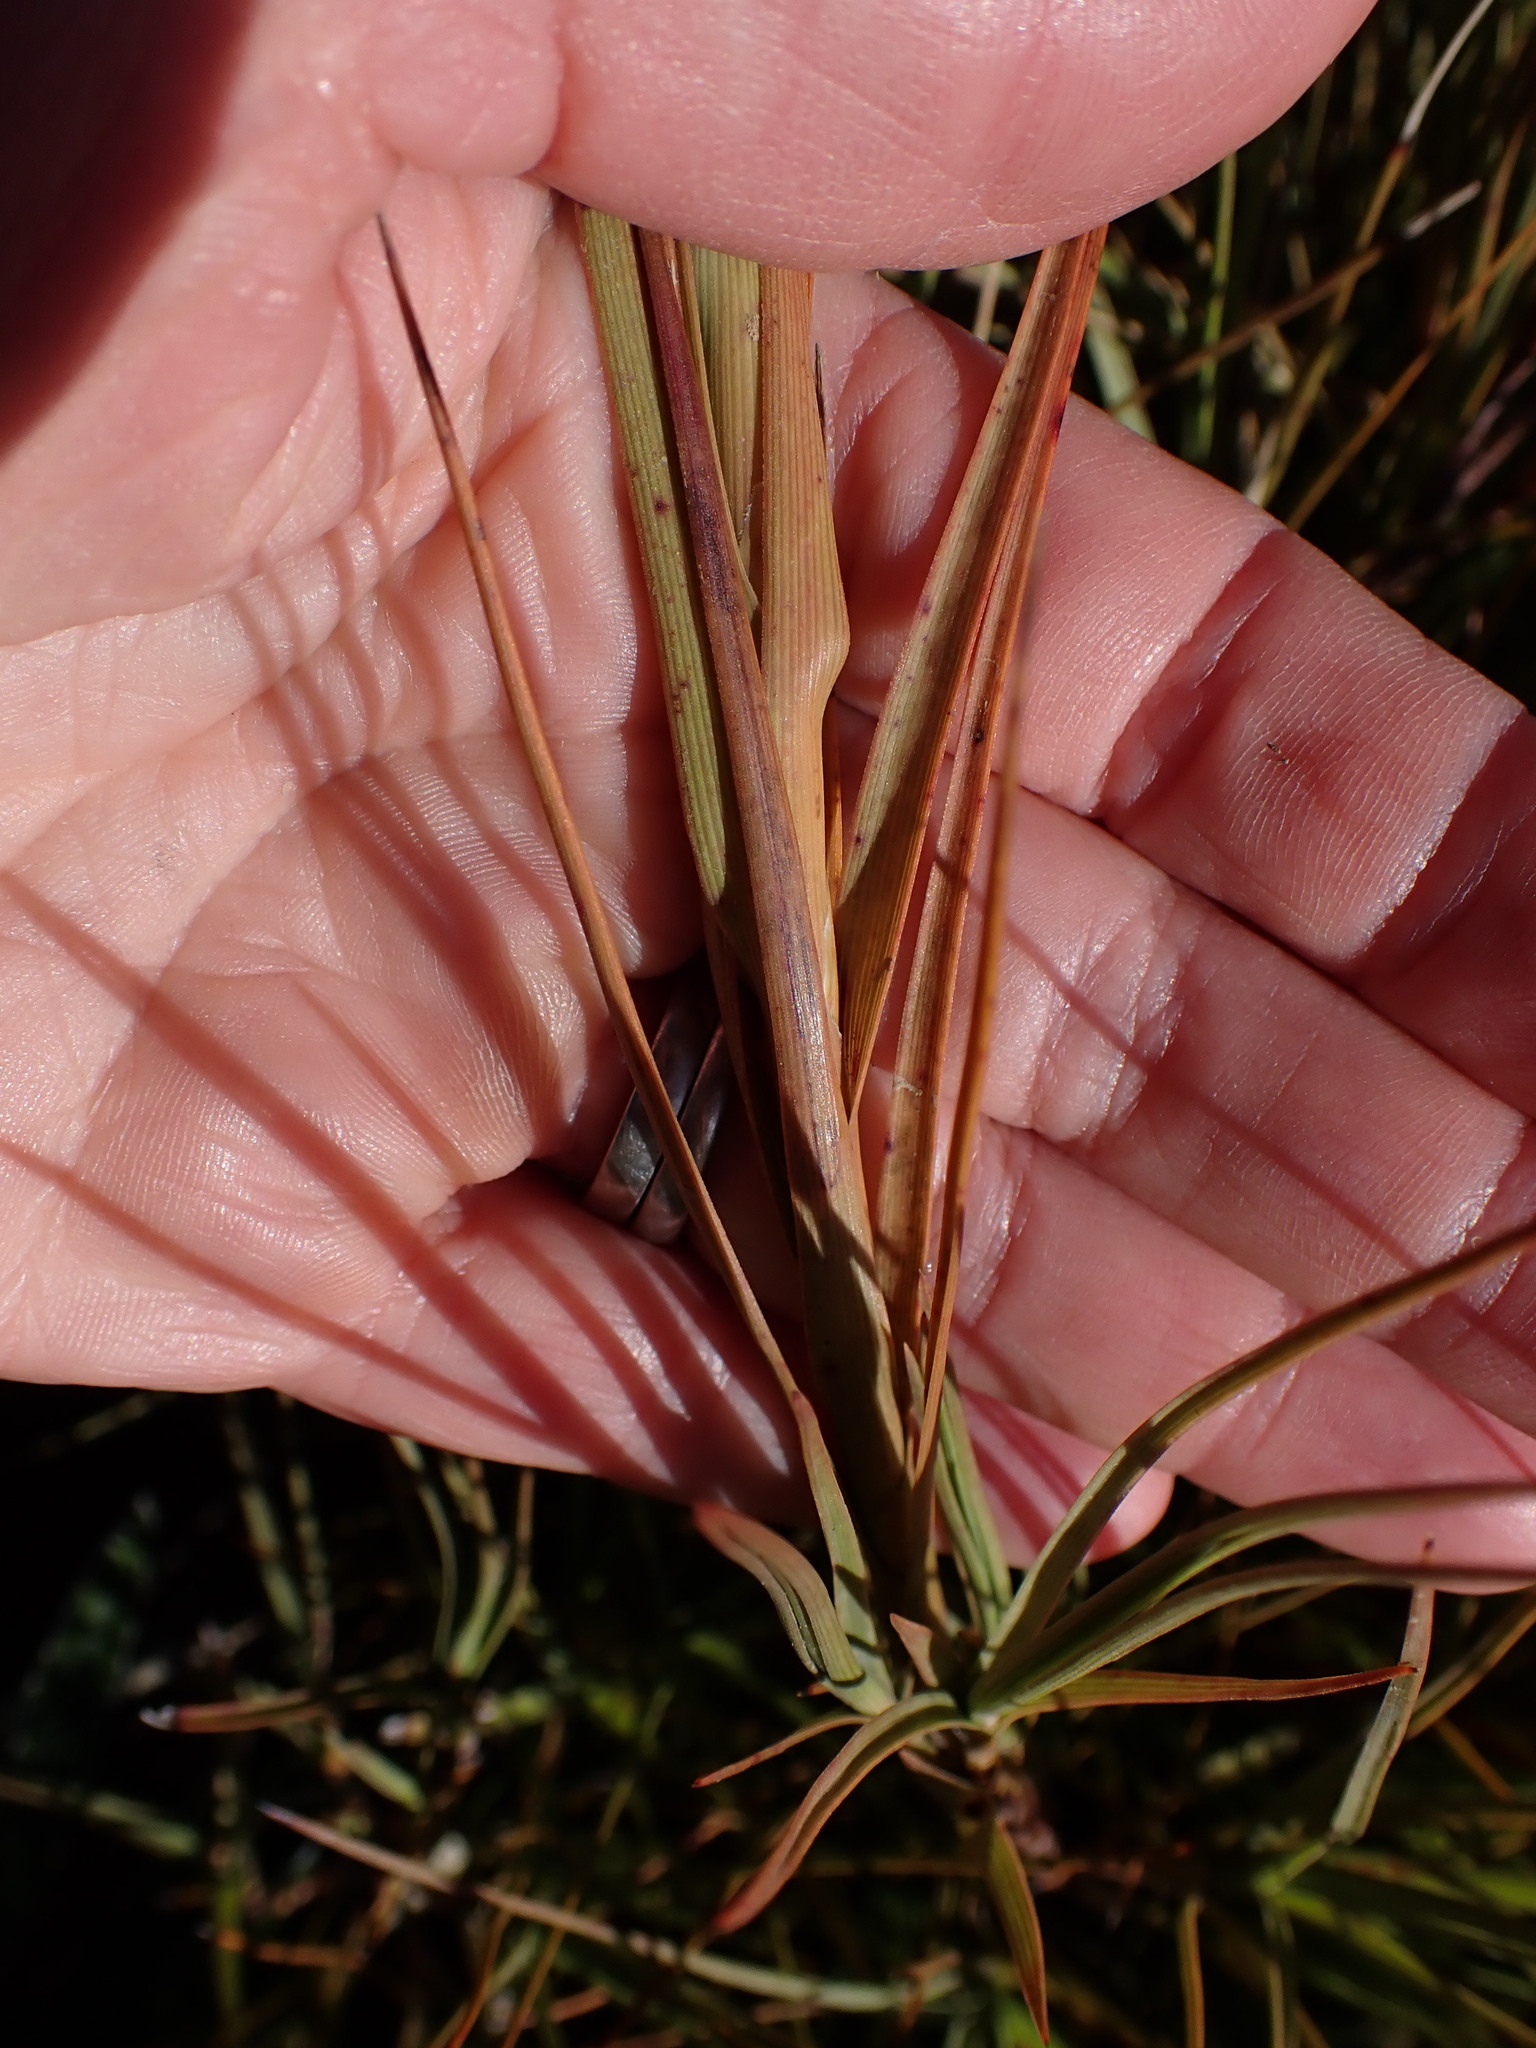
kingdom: Plantae
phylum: Tracheophyta
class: Magnoliopsida
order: Ericales
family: Ericaceae
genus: Dracophyllum
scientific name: Dracophyllum longifolium
